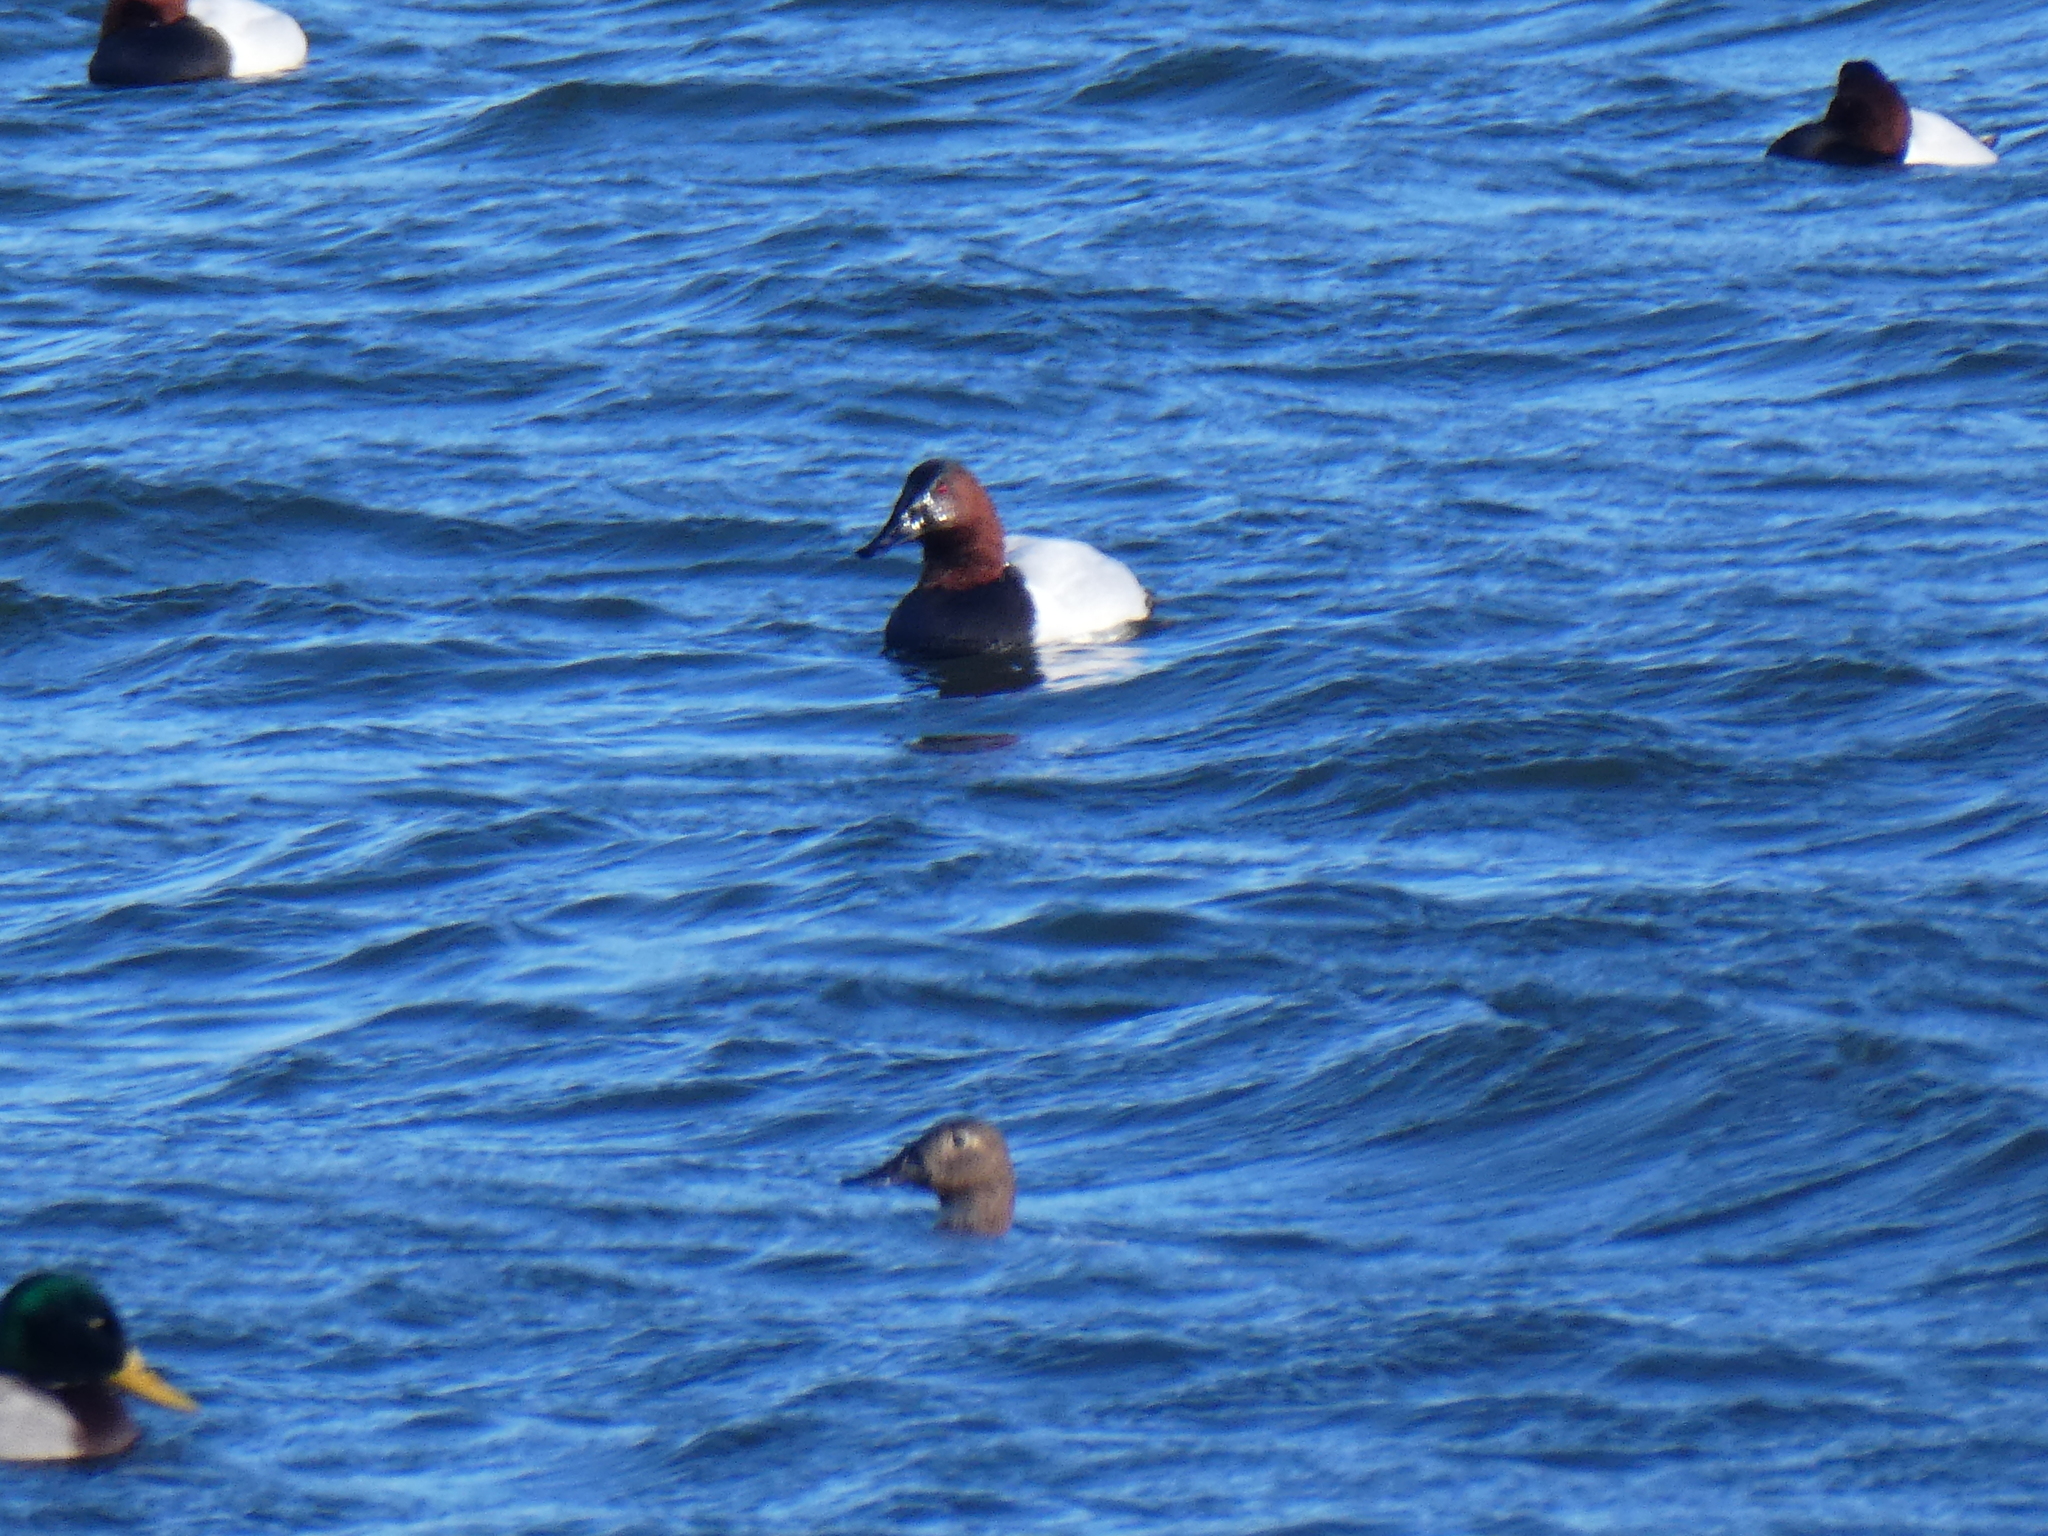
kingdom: Animalia
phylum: Chordata
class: Aves
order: Anseriformes
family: Anatidae
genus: Aythya
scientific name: Aythya valisineria
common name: Canvasback
